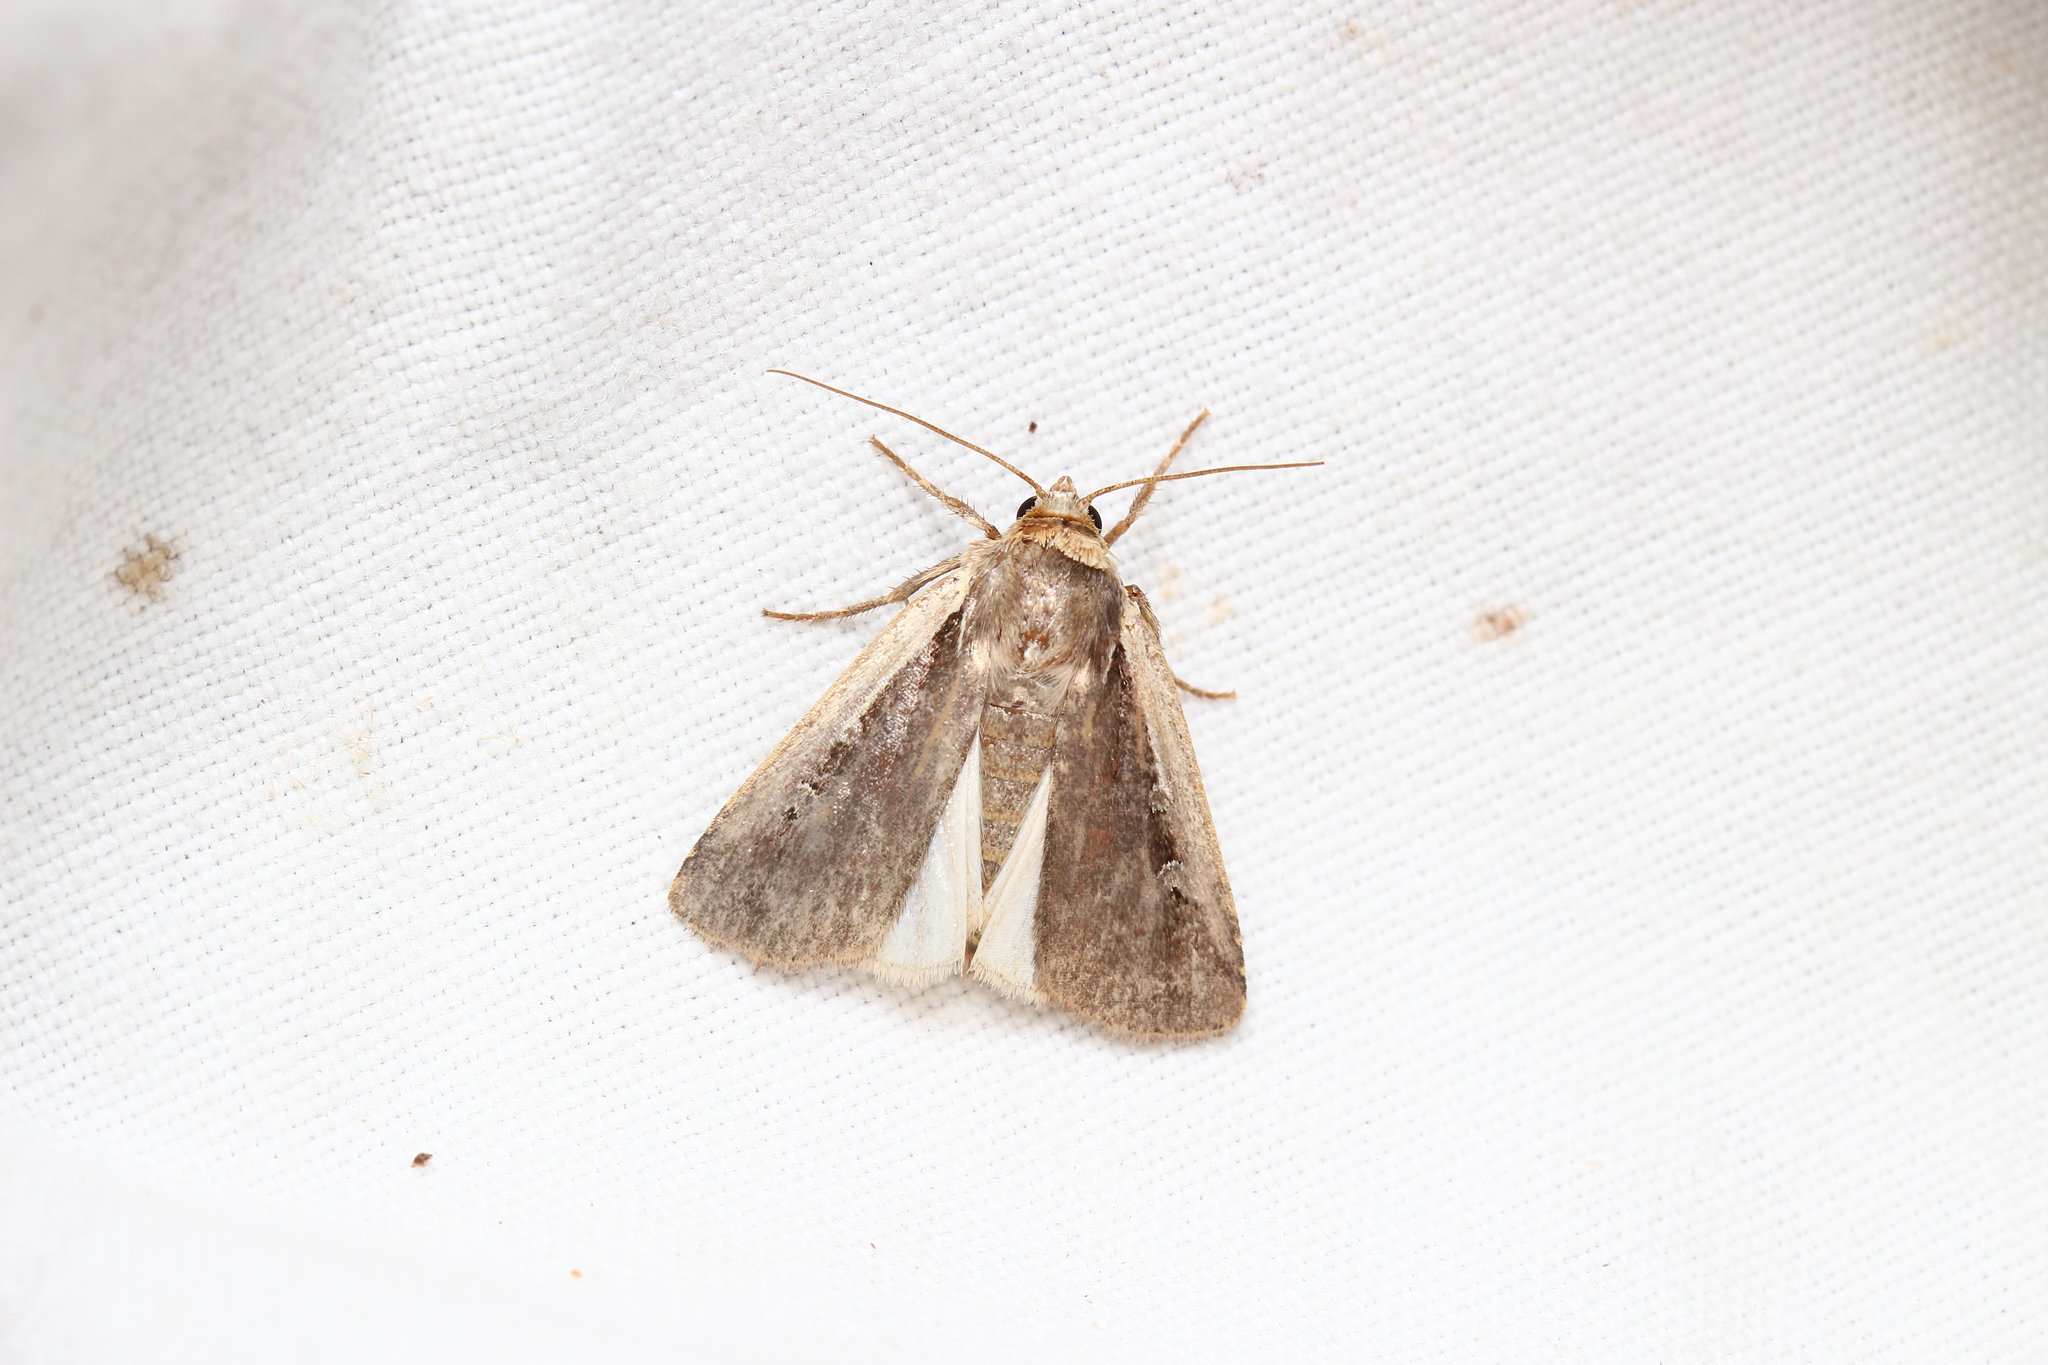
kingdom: Animalia
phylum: Arthropoda
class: Insecta
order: Lepidoptera
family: Noctuidae
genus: Ochropleura
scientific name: Ochropleura plecta
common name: Flame shoulder
